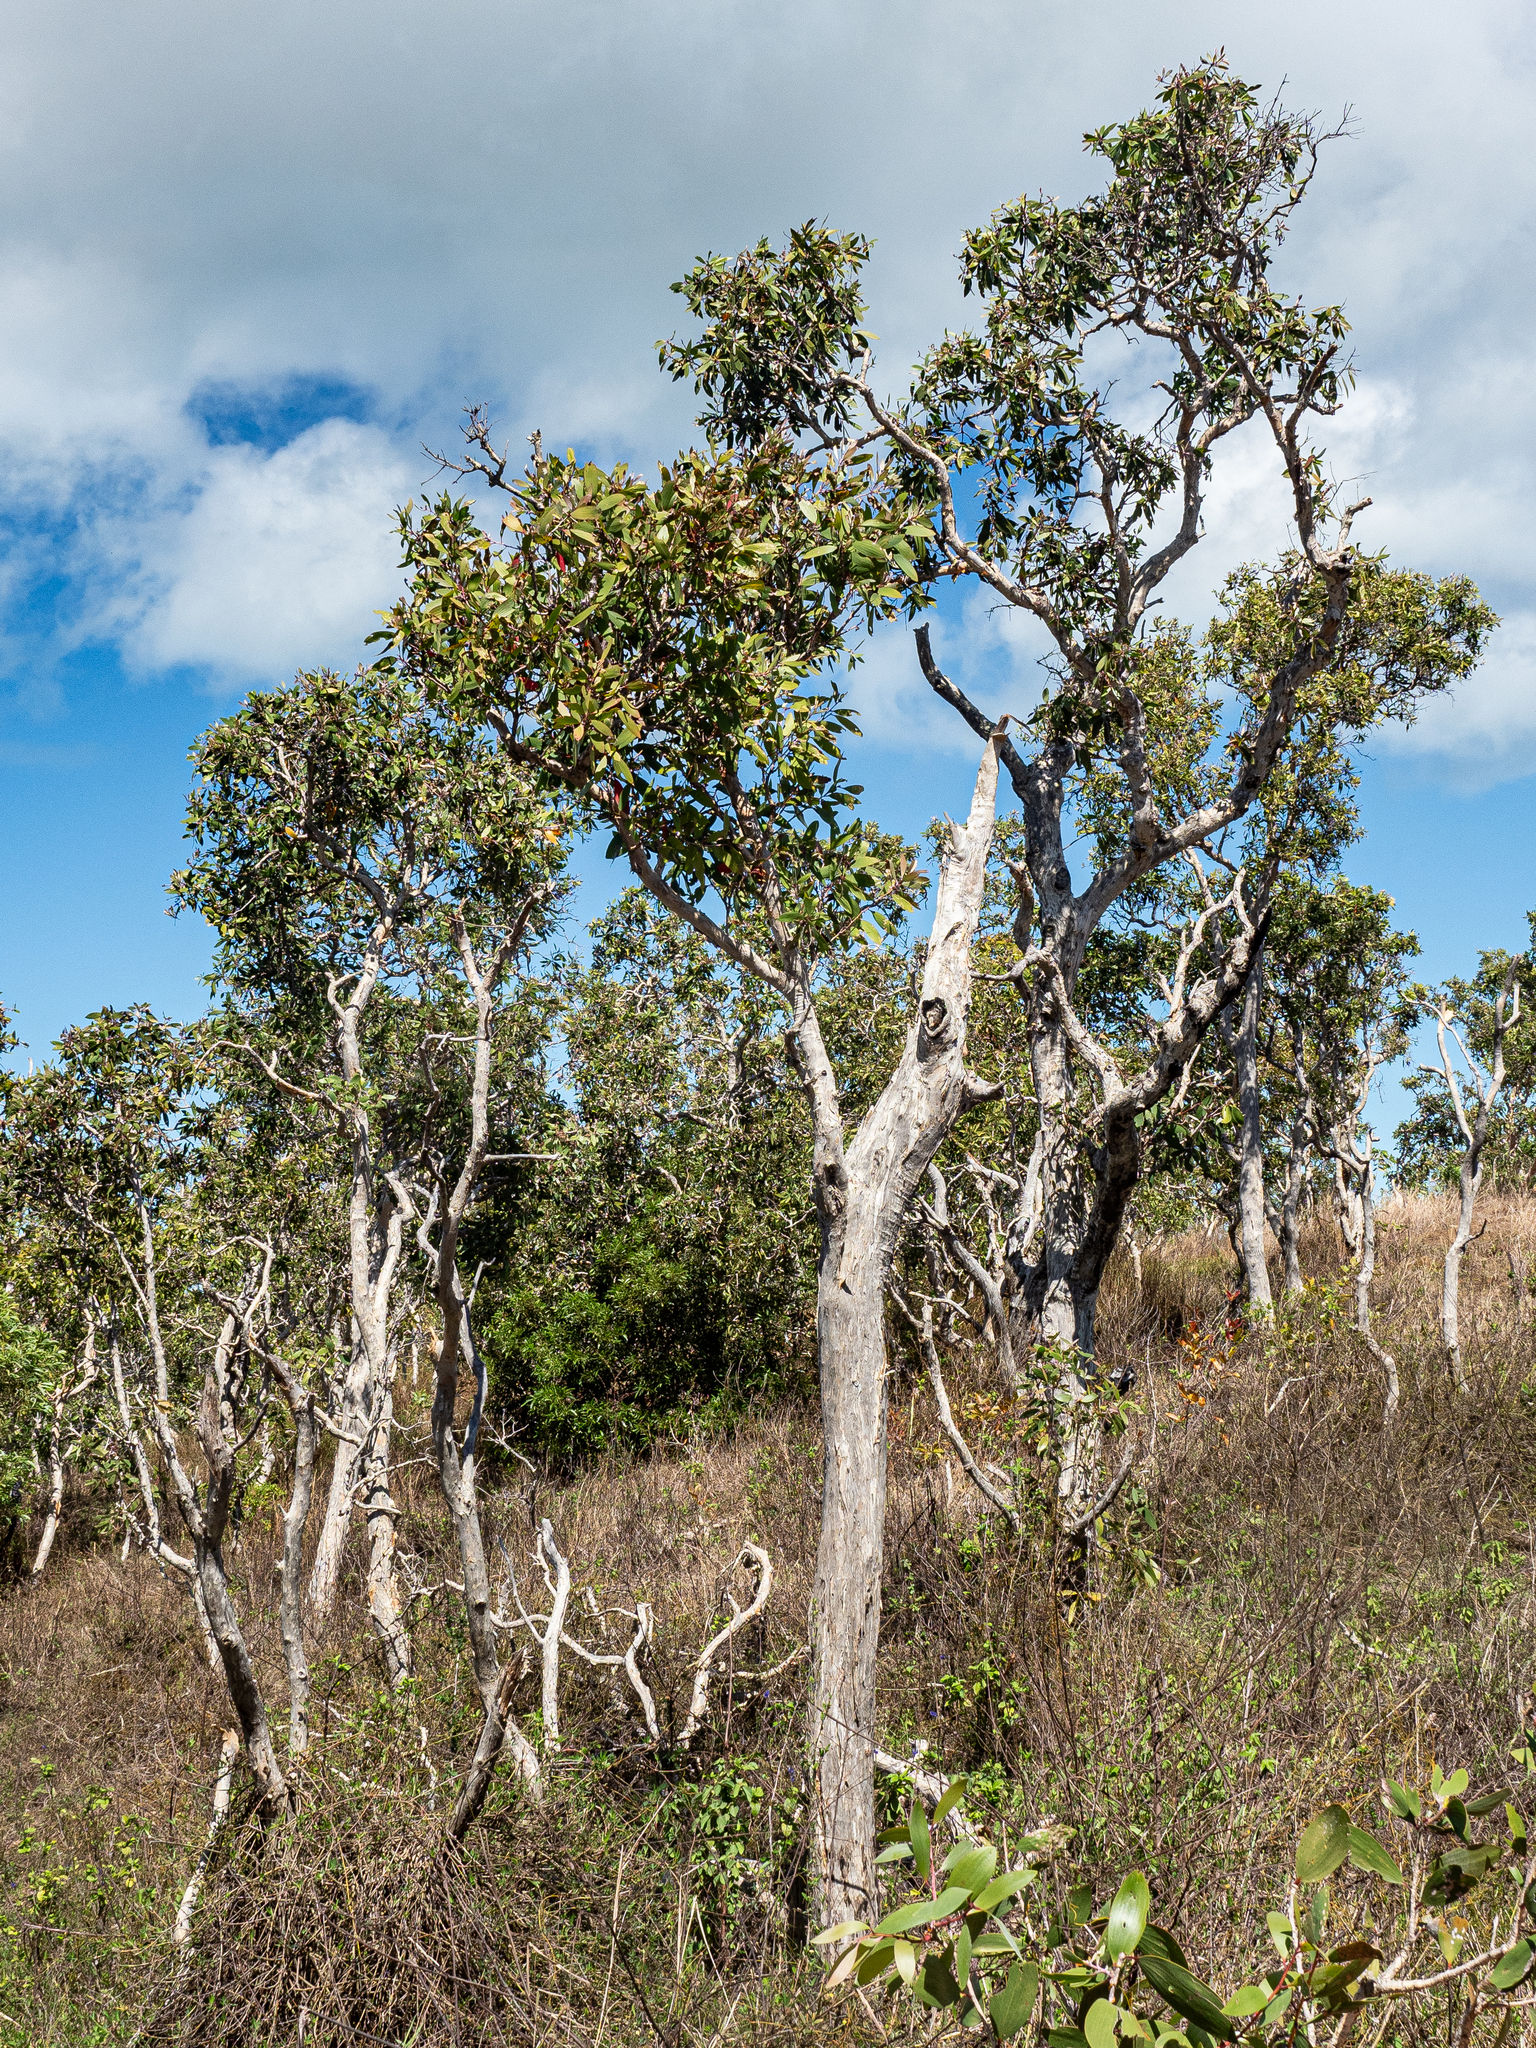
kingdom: Plantae
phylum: Tracheophyta
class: Magnoliopsida
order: Myrtales
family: Myrtaceae
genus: Melaleuca
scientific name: Melaleuca quinquenervia
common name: Punktree
